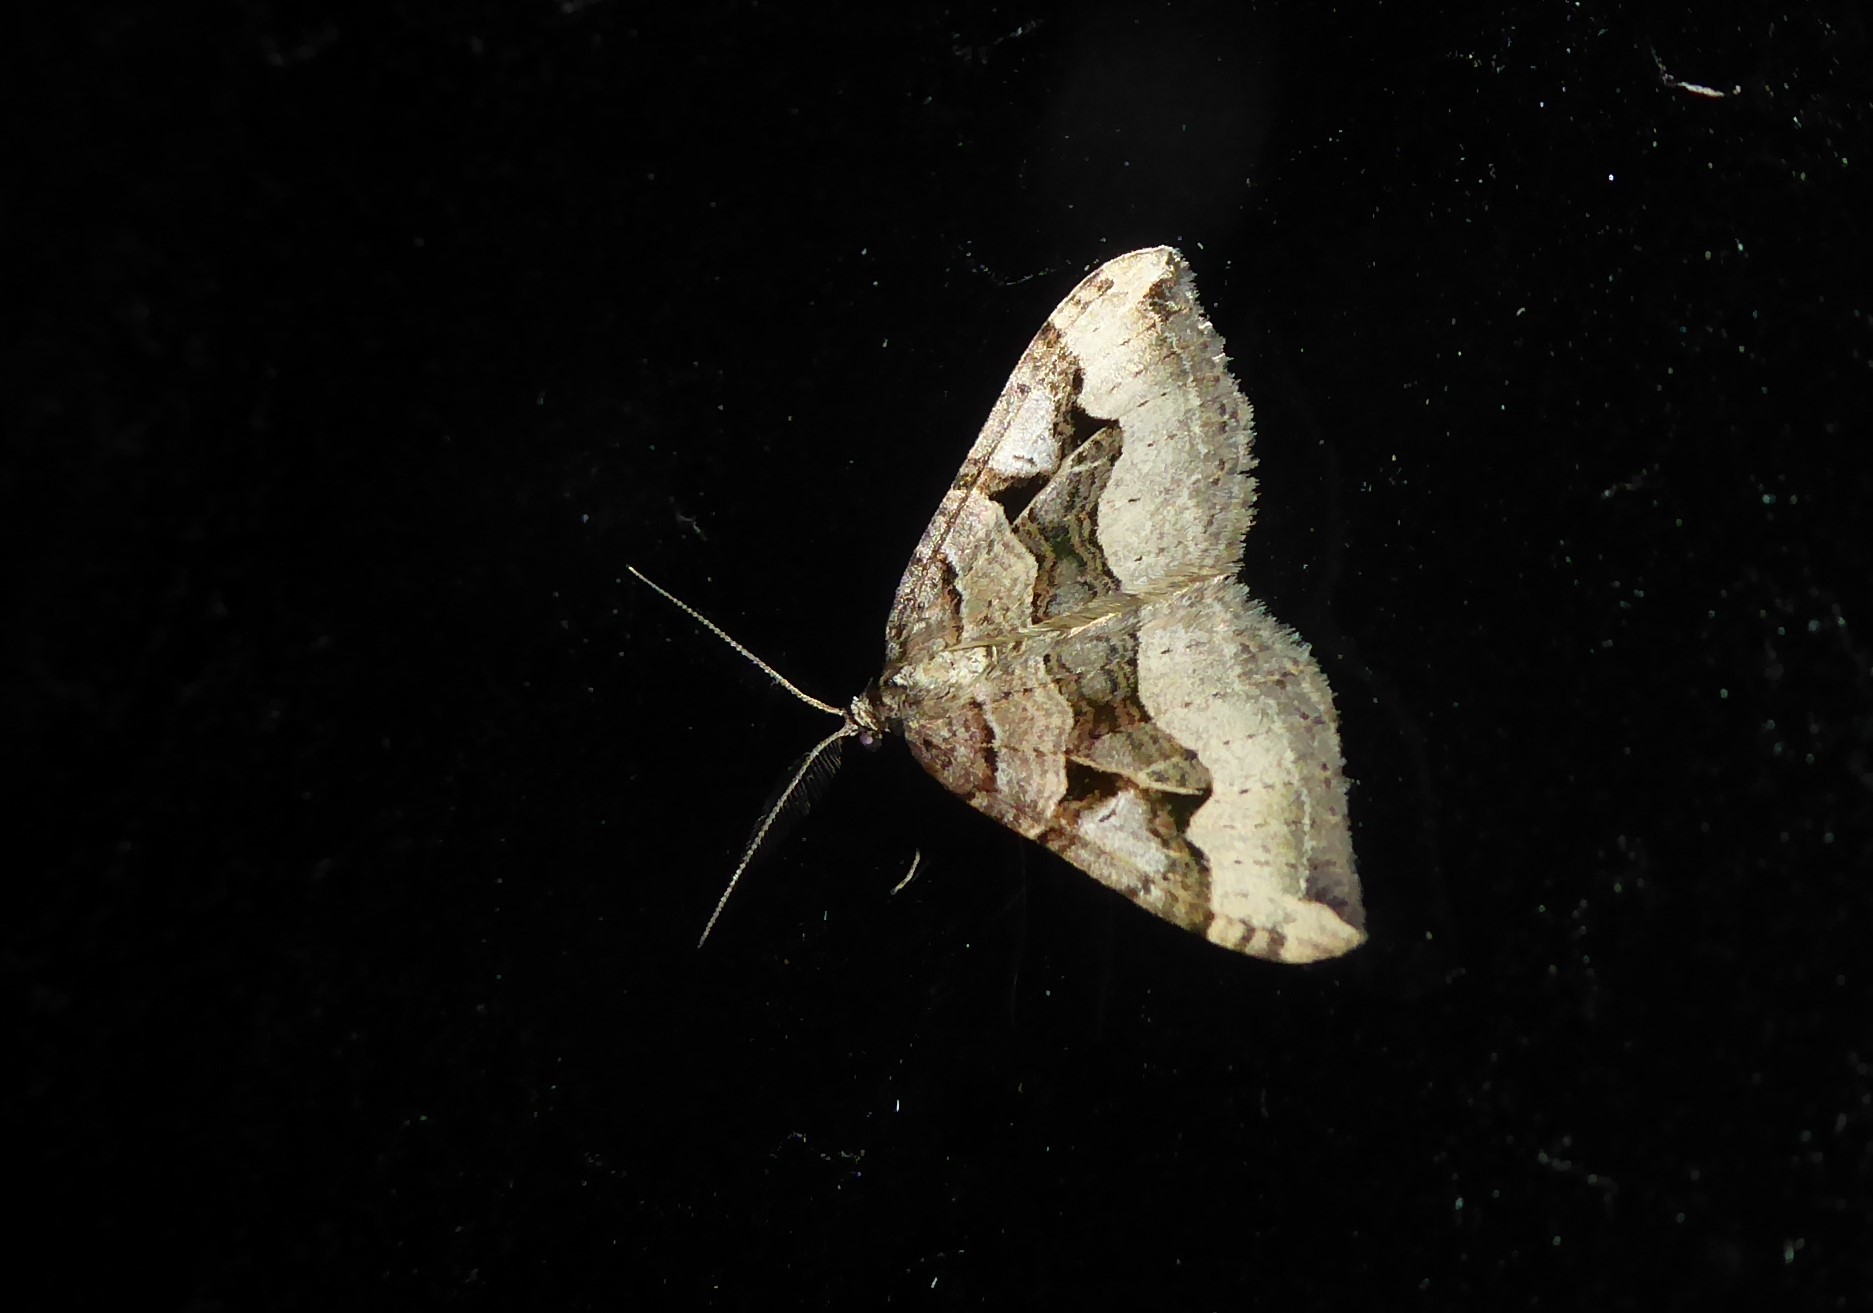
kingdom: Animalia
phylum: Arthropoda
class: Insecta
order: Lepidoptera
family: Geometridae
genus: Xanthorhoe
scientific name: Xanthorhoe semifissata
